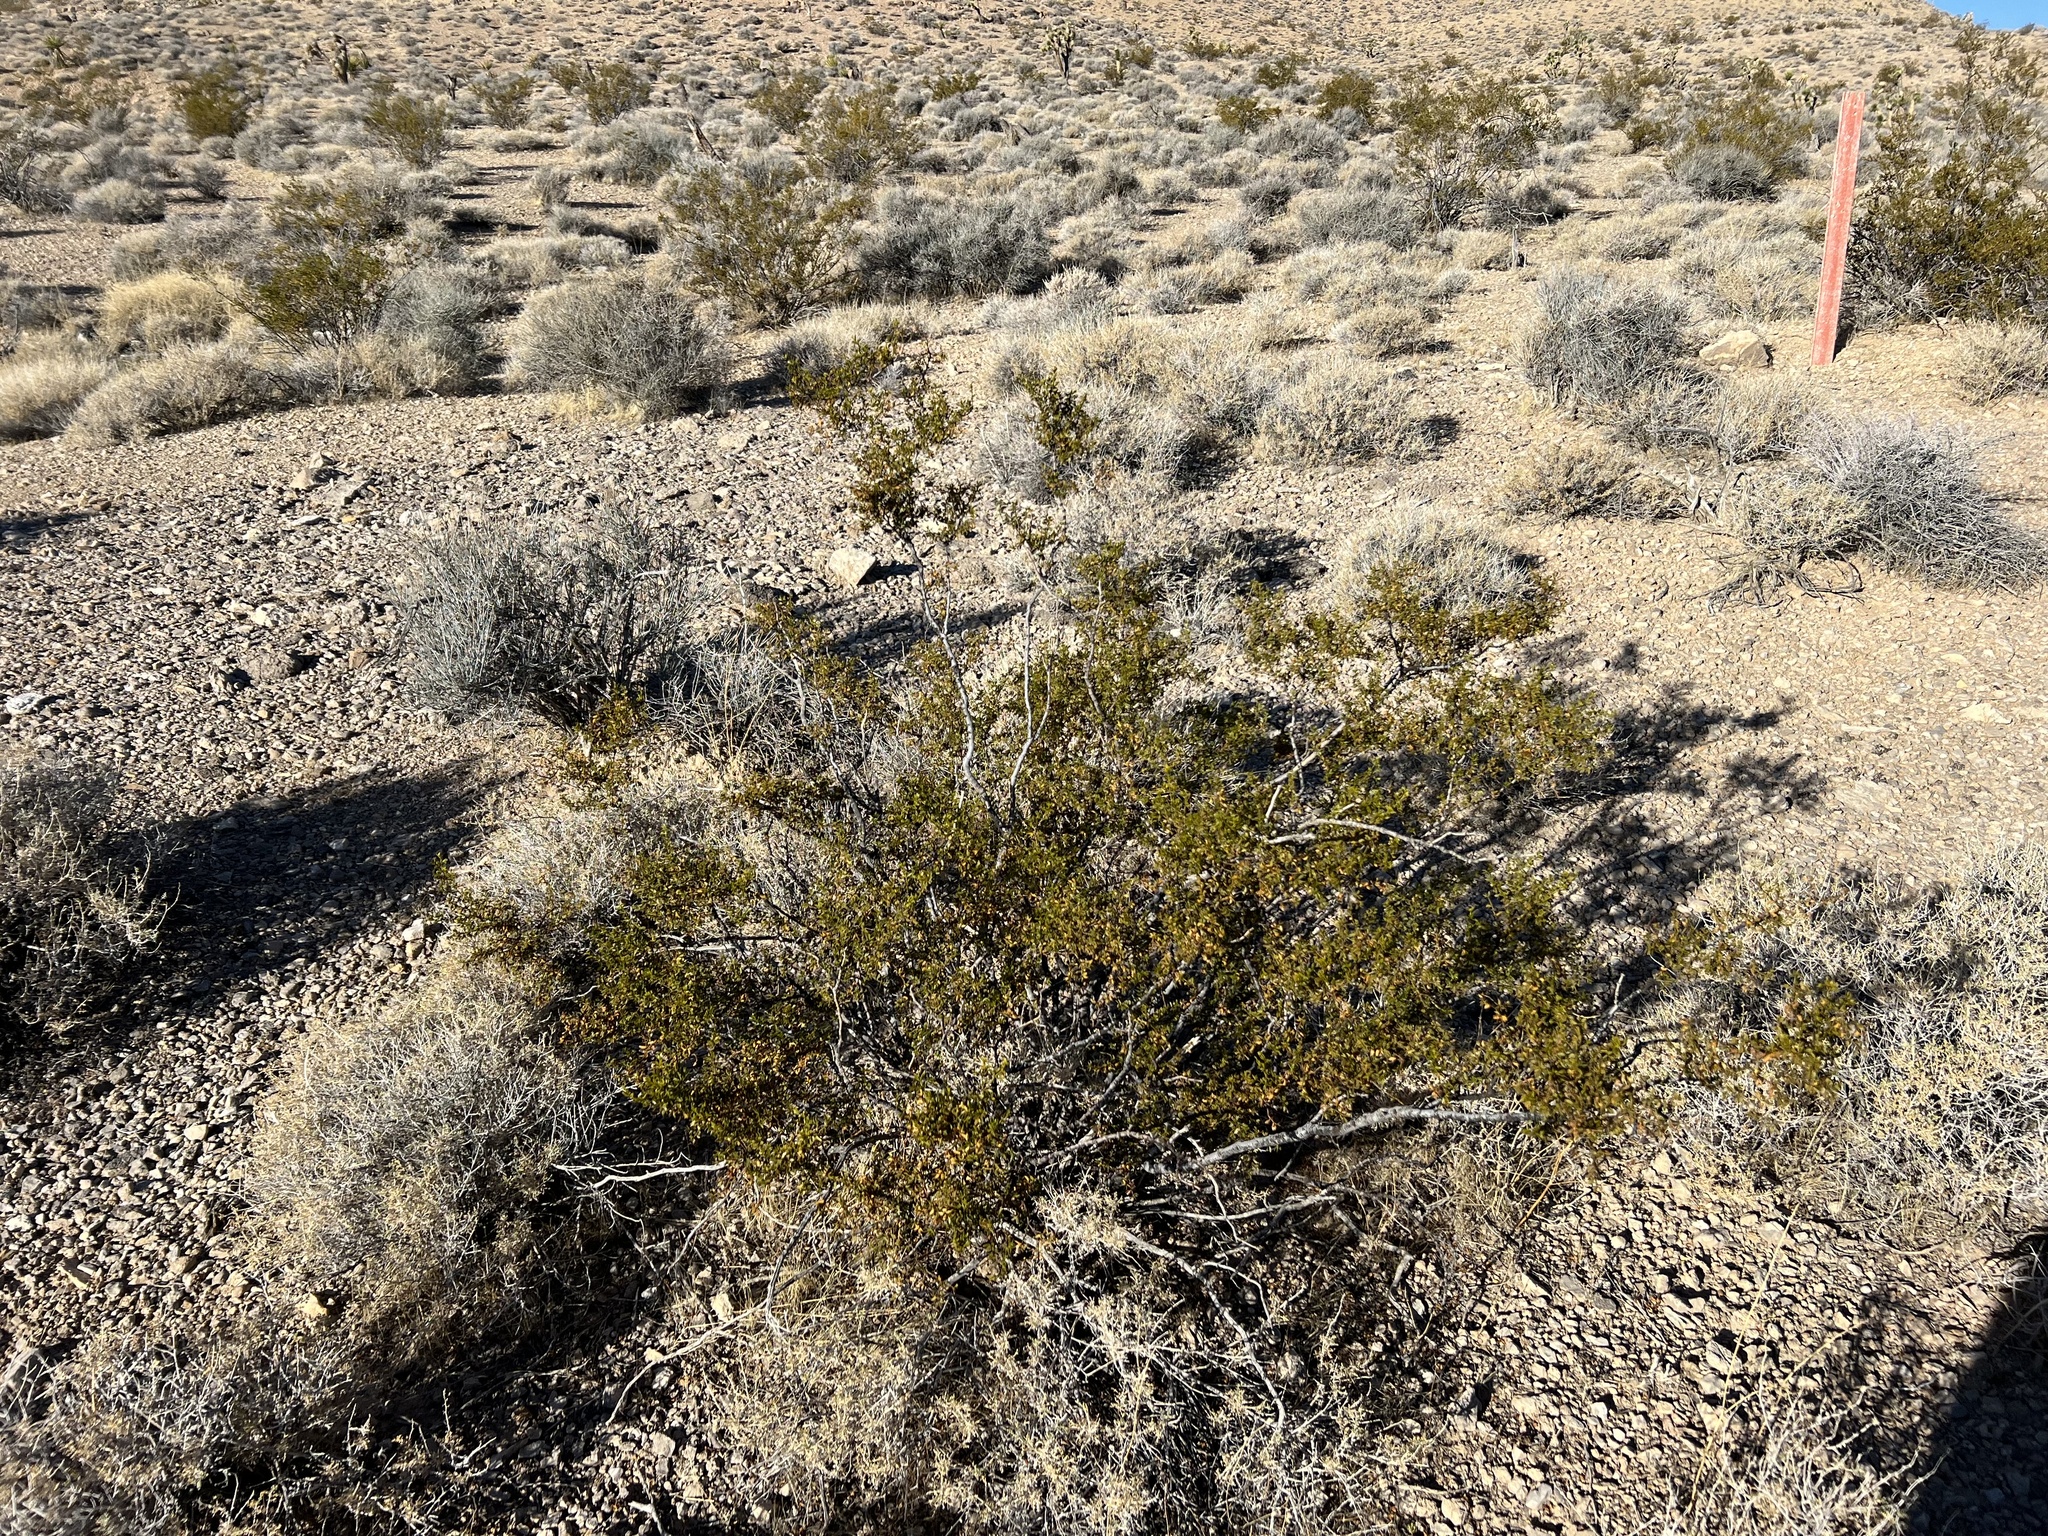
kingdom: Plantae
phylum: Tracheophyta
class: Magnoliopsida
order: Zygophyllales
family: Zygophyllaceae
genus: Larrea
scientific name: Larrea tridentata
